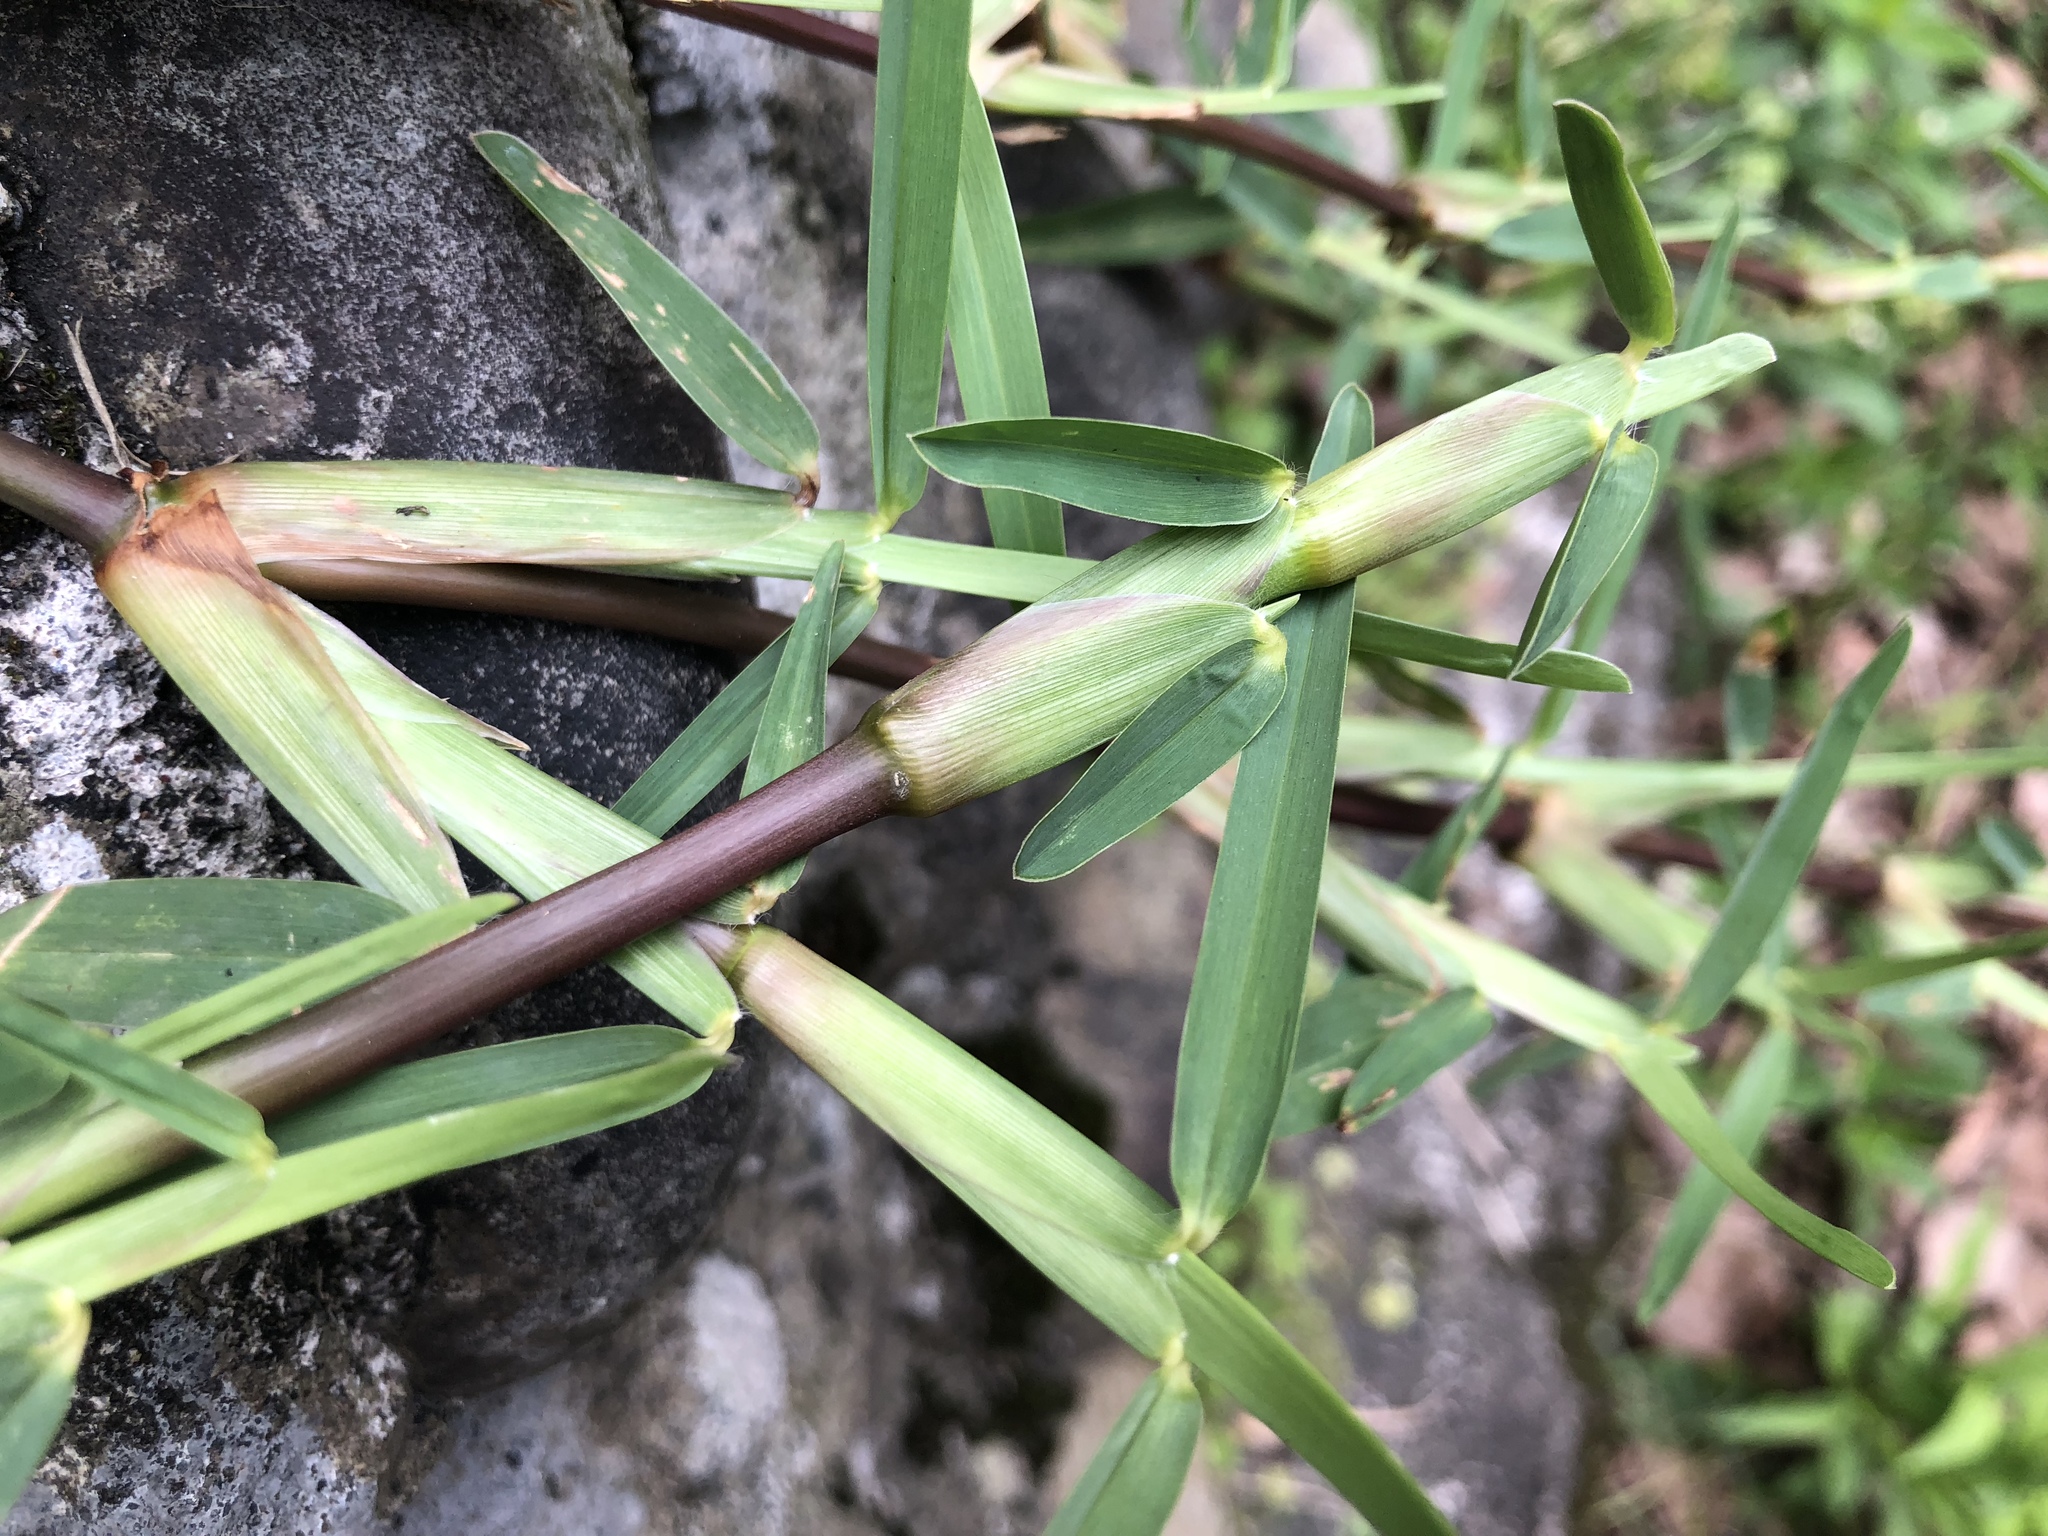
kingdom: Plantae
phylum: Tracheophyta
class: Liliopsida
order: Poales
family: Poaceae
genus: Stenotaphrum
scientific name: Stenotaphrum secundatum
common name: St. augustine grass
